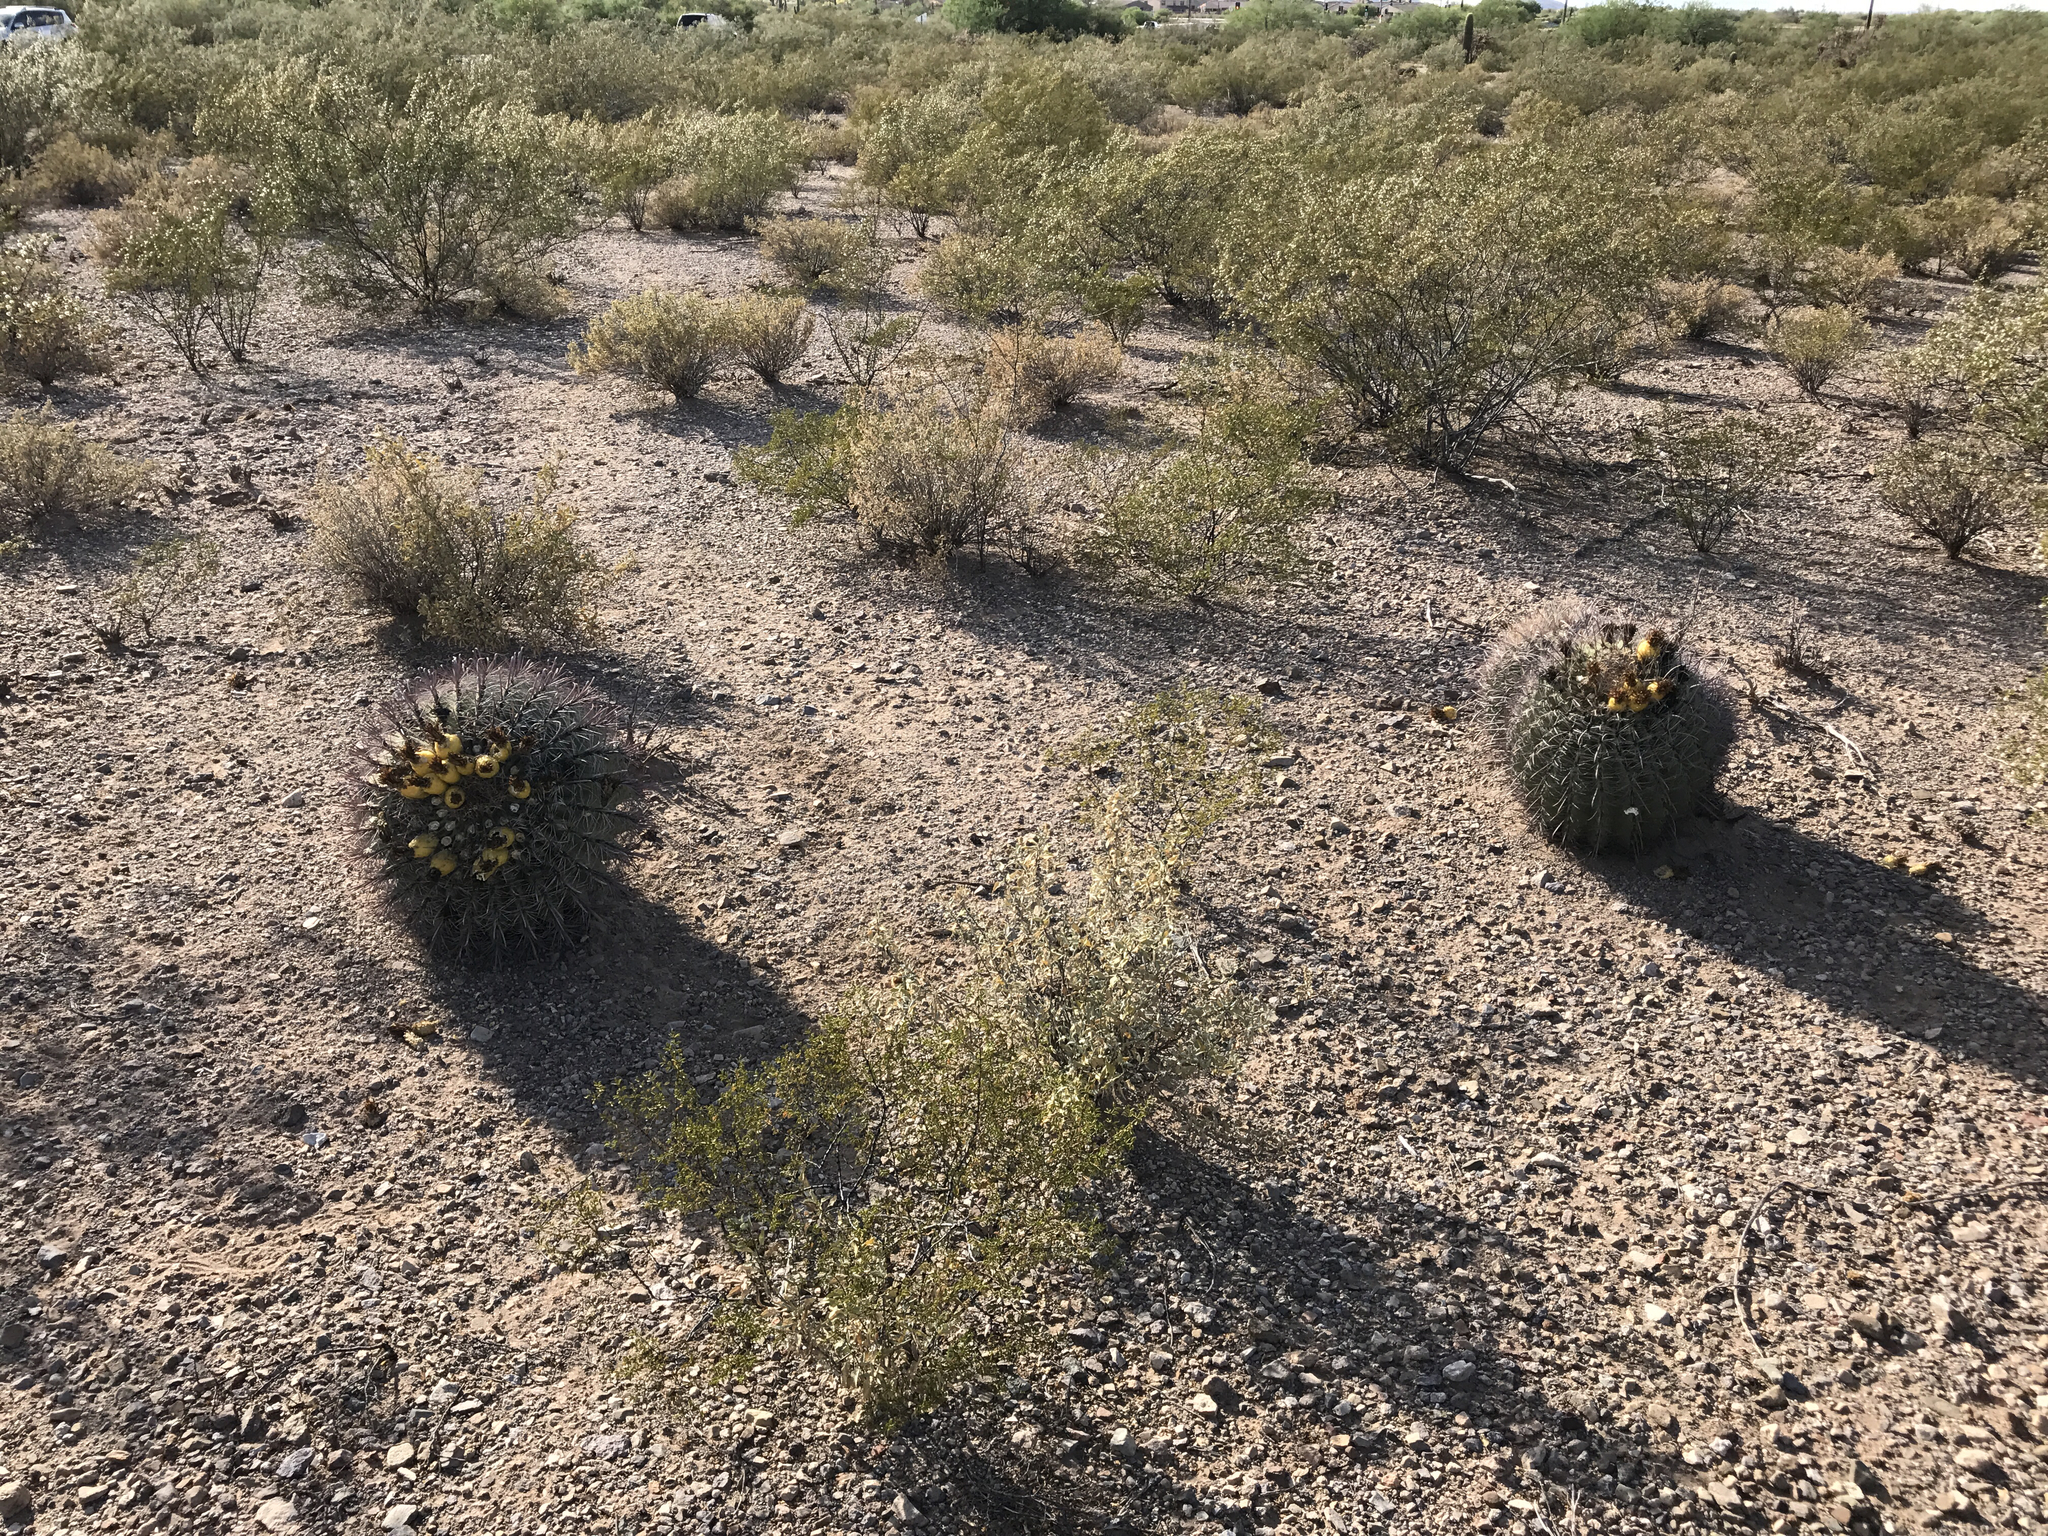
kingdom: Plantae
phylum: Tracheophyta
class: Magnoliopsida
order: Caryophyllales
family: Cactaceae
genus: Ferocactus
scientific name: Ferocactus wislizeni
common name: Candy barrel cactus
